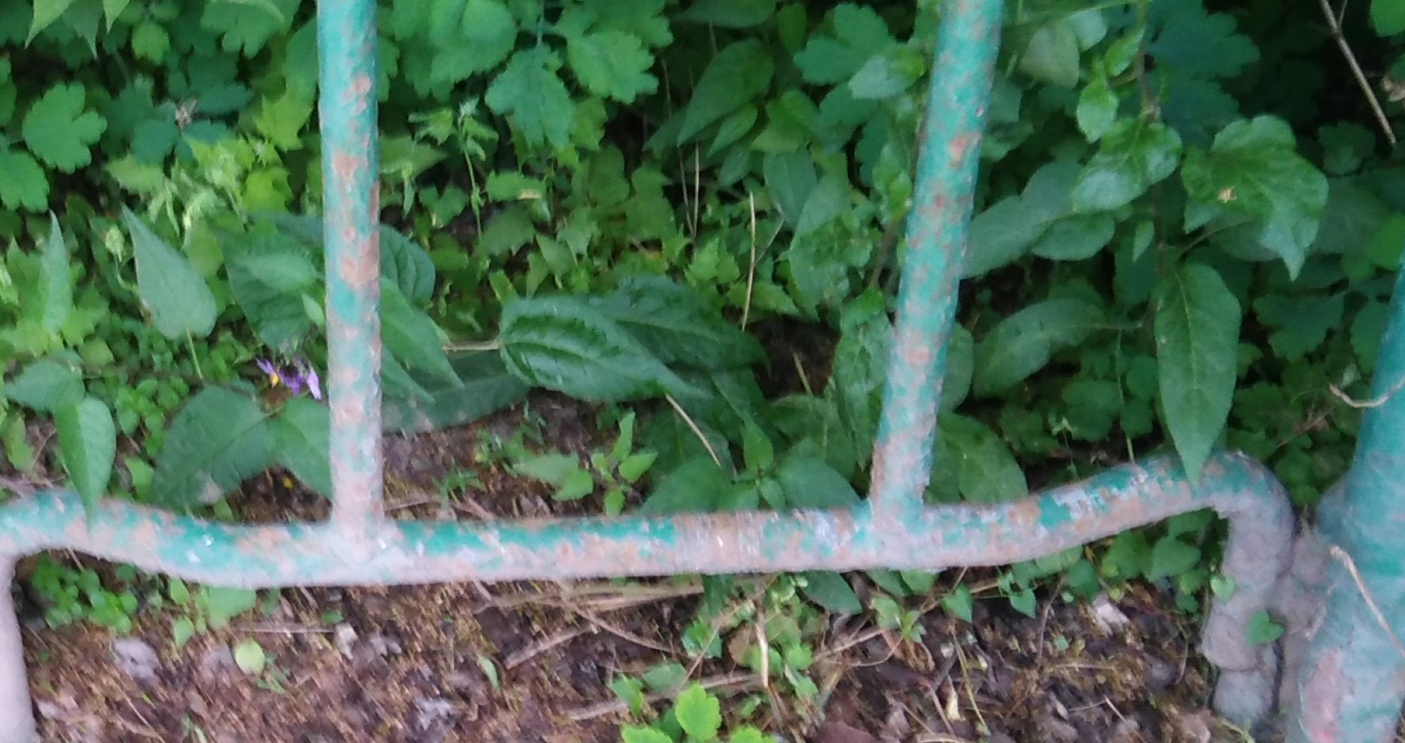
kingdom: Plantae
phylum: Tracheophyta
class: Magnoliopsida
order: Solanales
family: Solanaceae
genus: Solanum
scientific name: Solanum dulcamara
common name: Climbing nightshade
